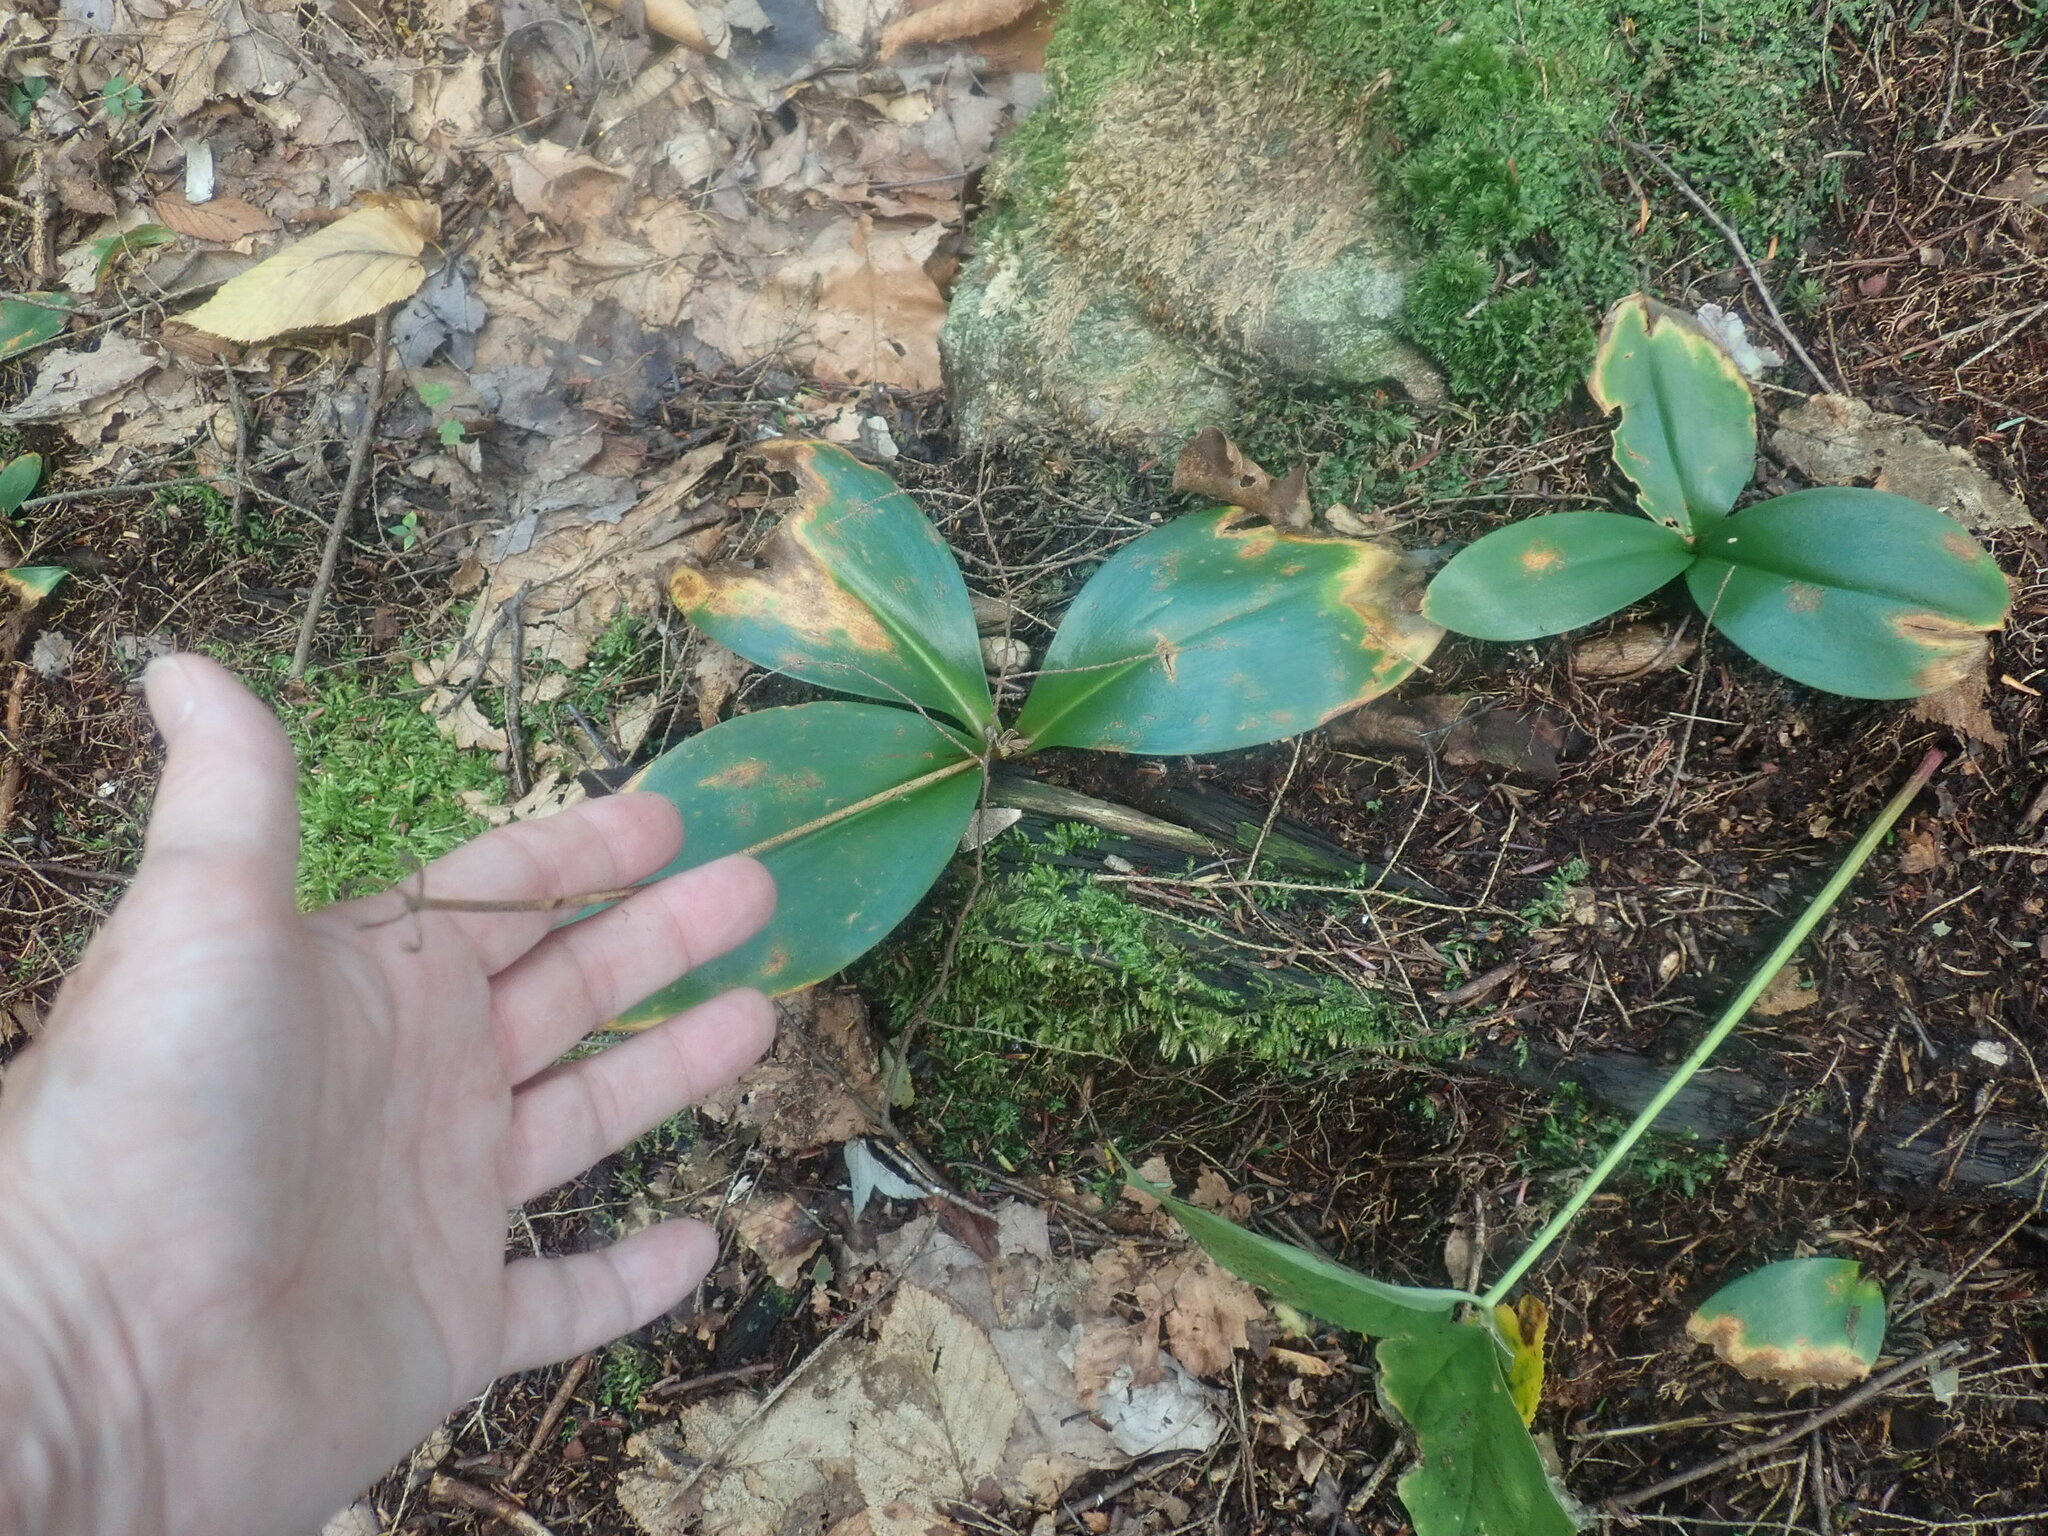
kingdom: Plantae
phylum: Tracheophyta
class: Liliopsida
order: Liliales
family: Liliaceae
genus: Clintonia
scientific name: Clintonia borealis
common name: Yellow clintonia
